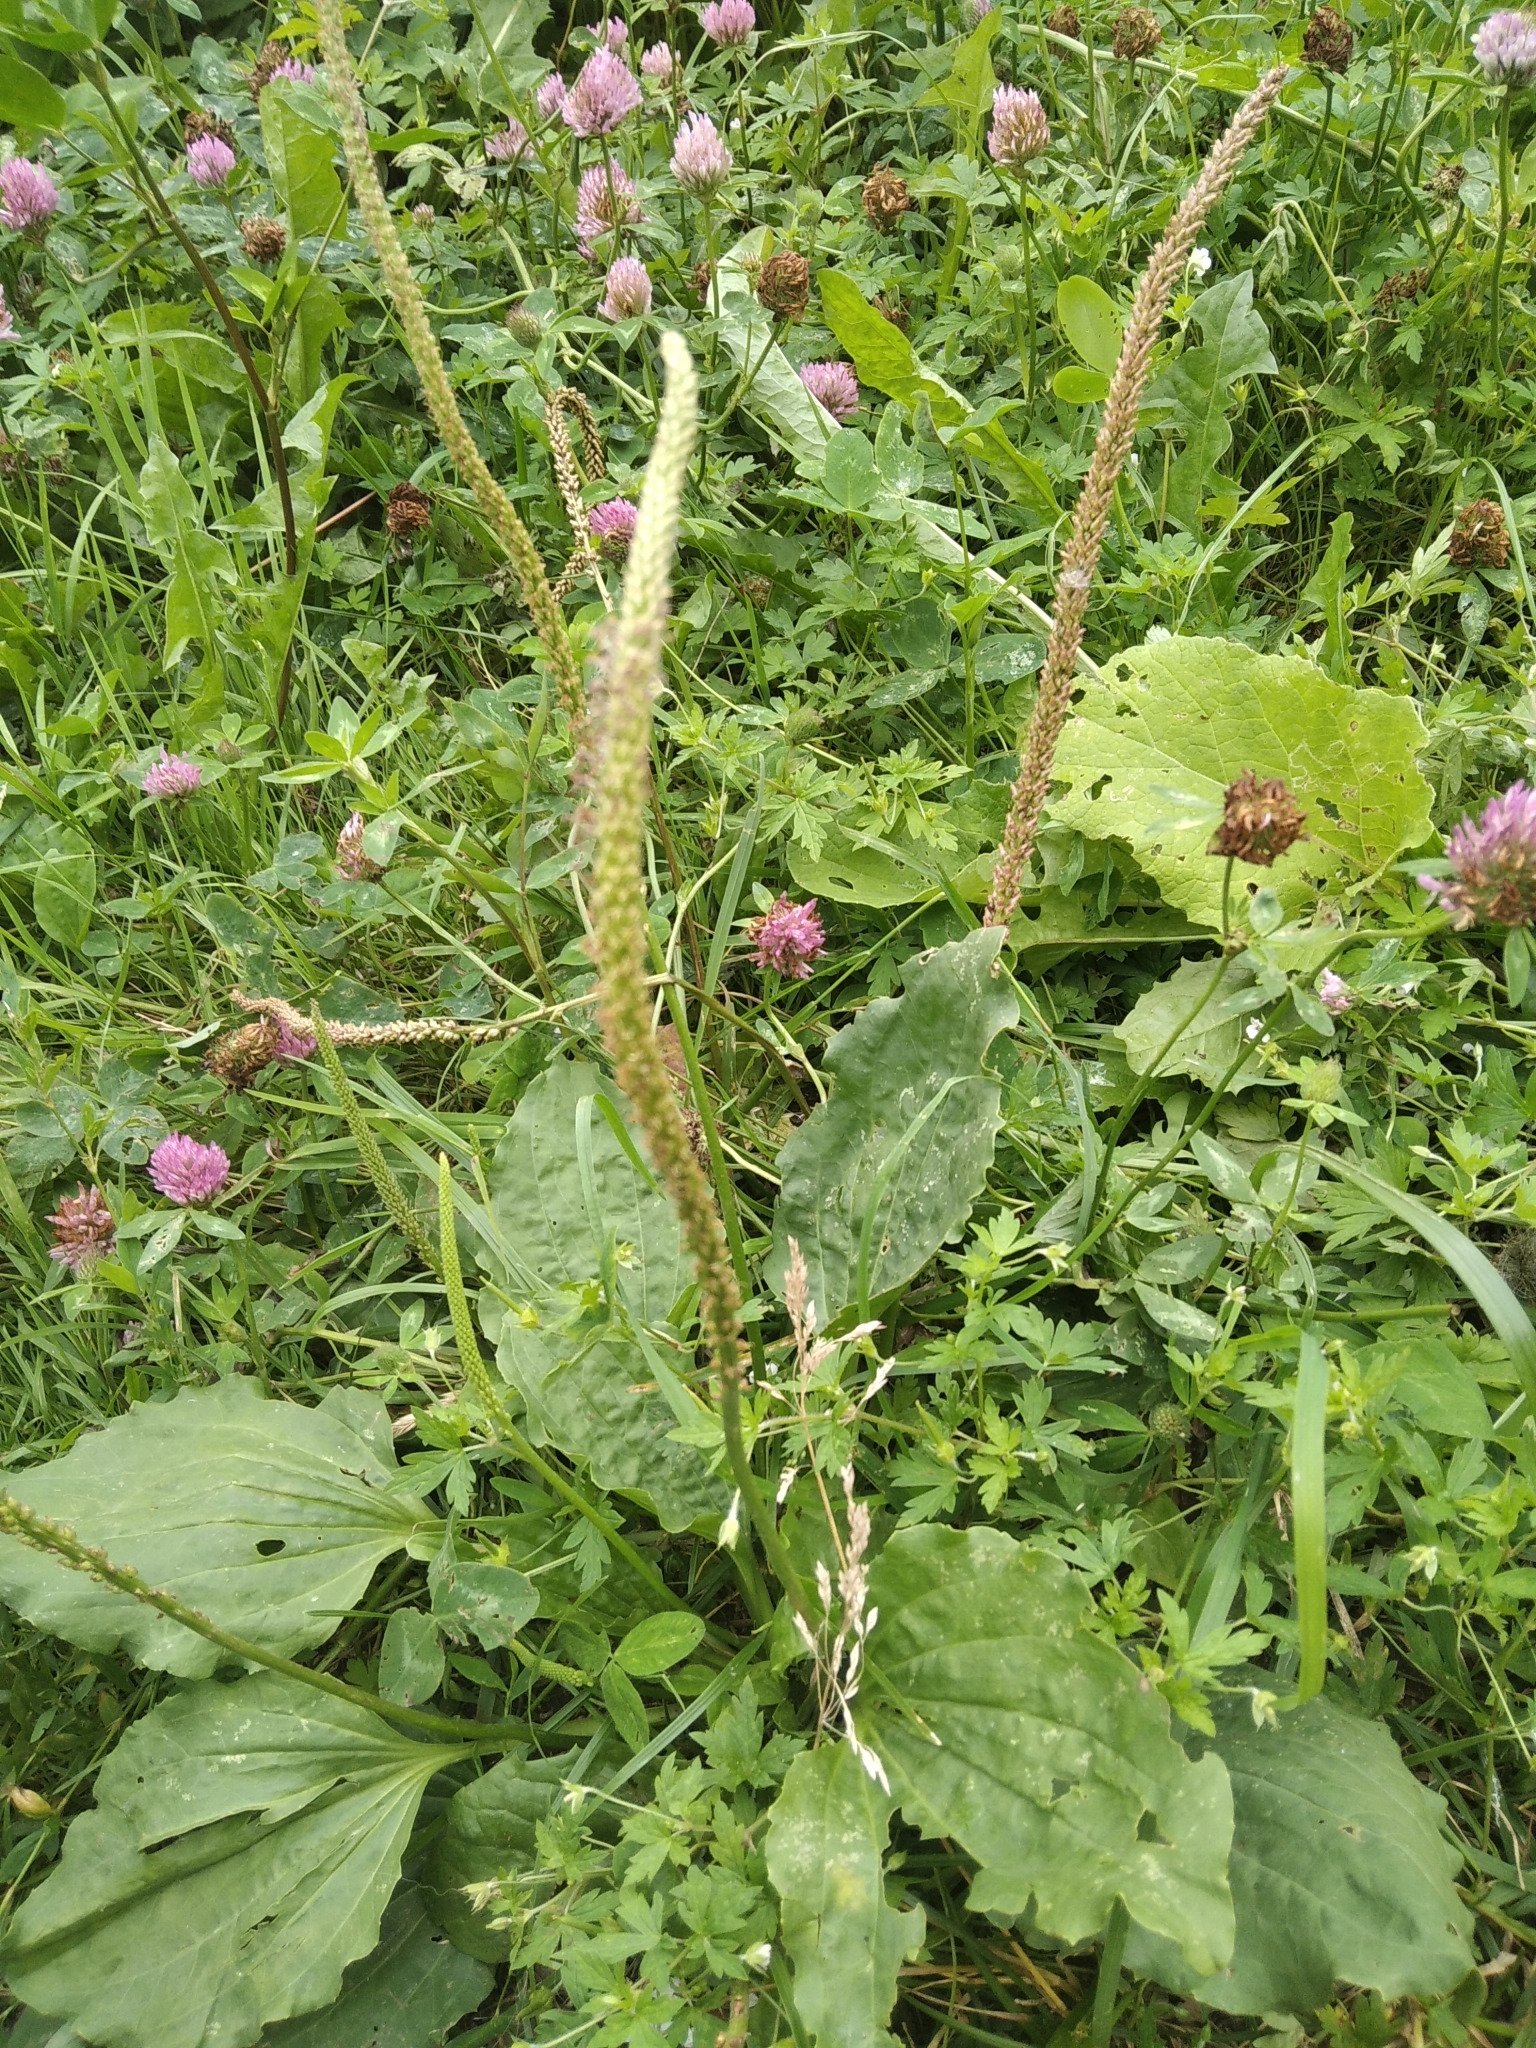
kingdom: Plantae
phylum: Tracheophyta
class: Magnoliopsida
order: Lamiales
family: Plantaginaceae
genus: Plantago
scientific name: Plantago major
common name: Common plantain
